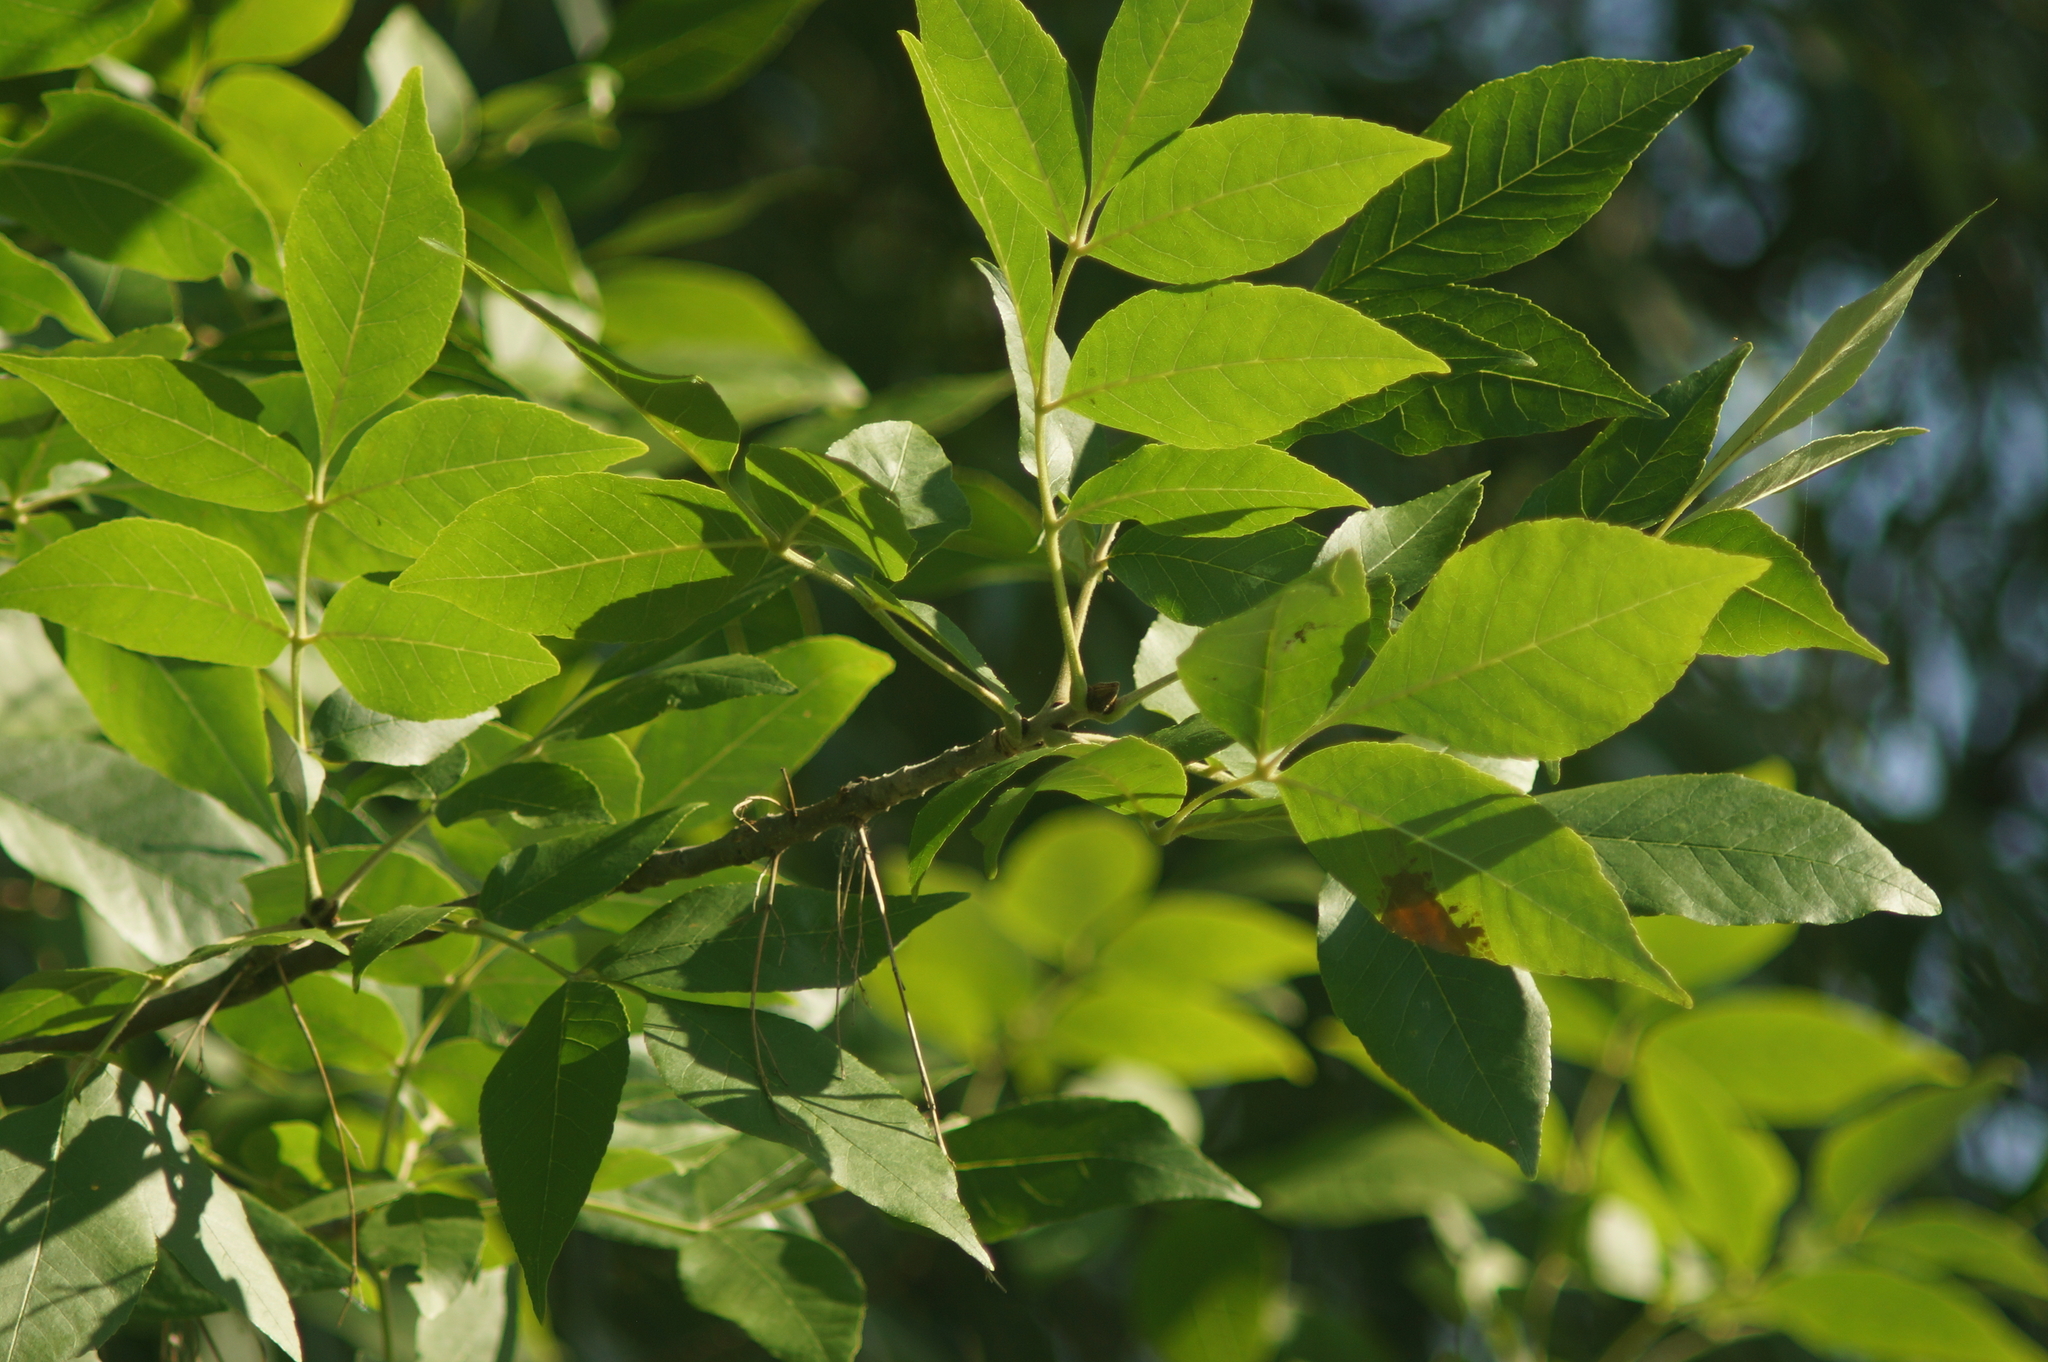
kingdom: Plantae
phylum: Tracheophyta
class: Magnoliopsida
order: Lamiales
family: Oleaceae
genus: Fraxinus
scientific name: Fraxinus pennsylvanica
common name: Green ash
